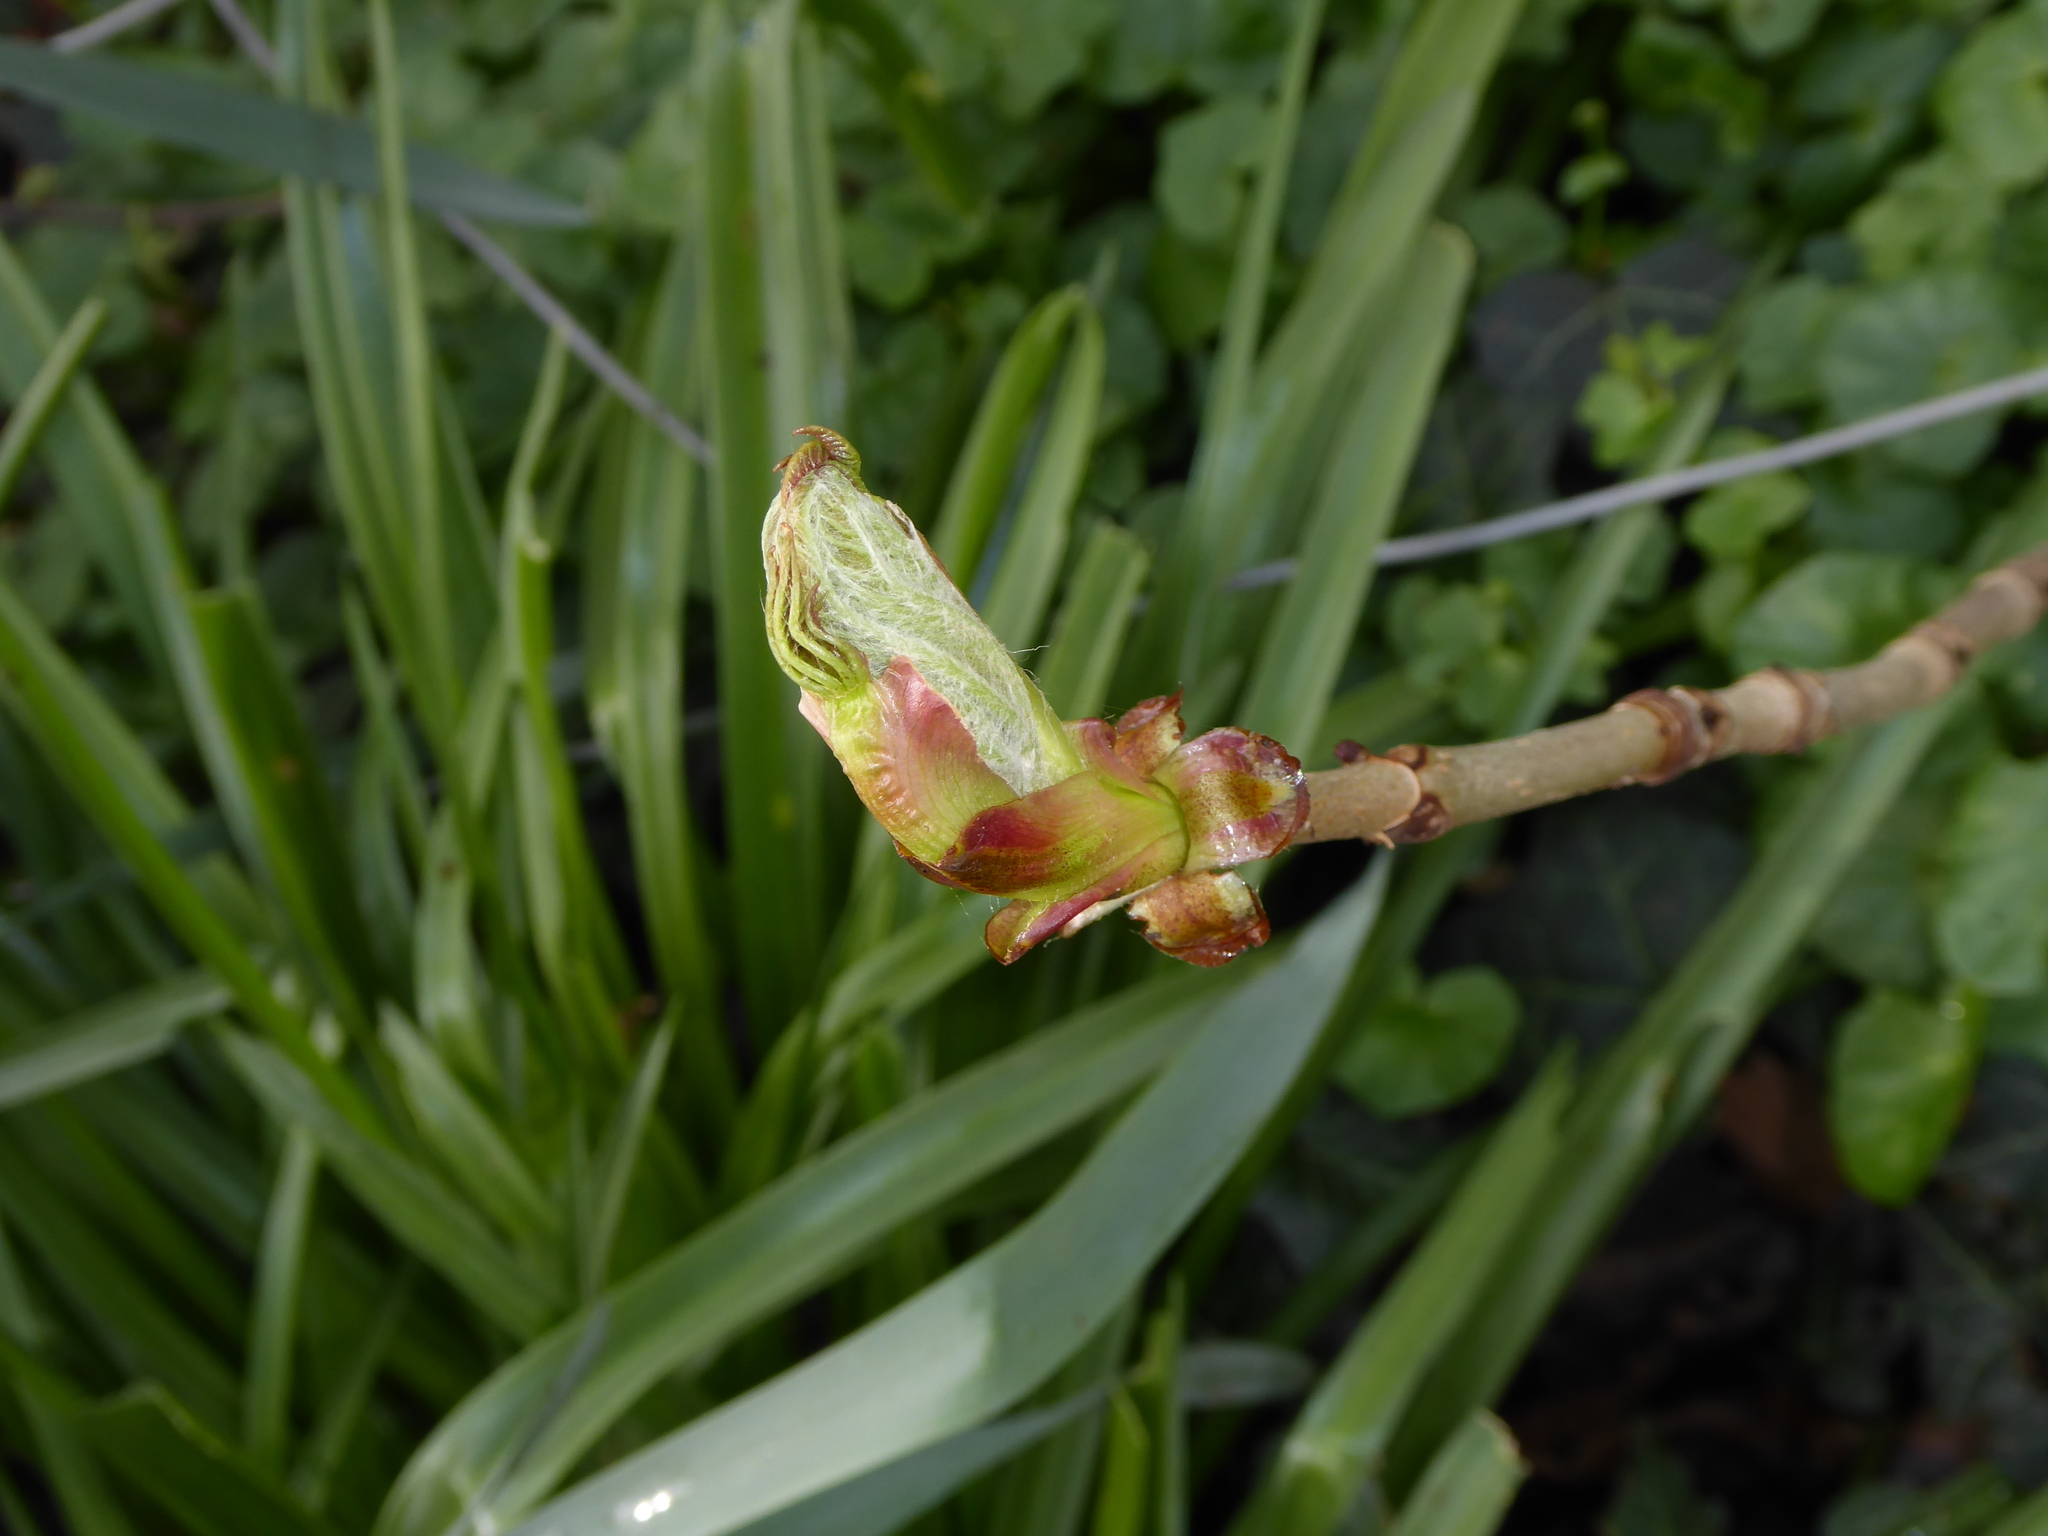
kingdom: Plantae
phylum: Tracheophyta
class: Magnoliopsida
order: Sapindales
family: Sapindaceae
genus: Aesculus
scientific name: Aesculus hippocastanum
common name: Horse-chestnut
